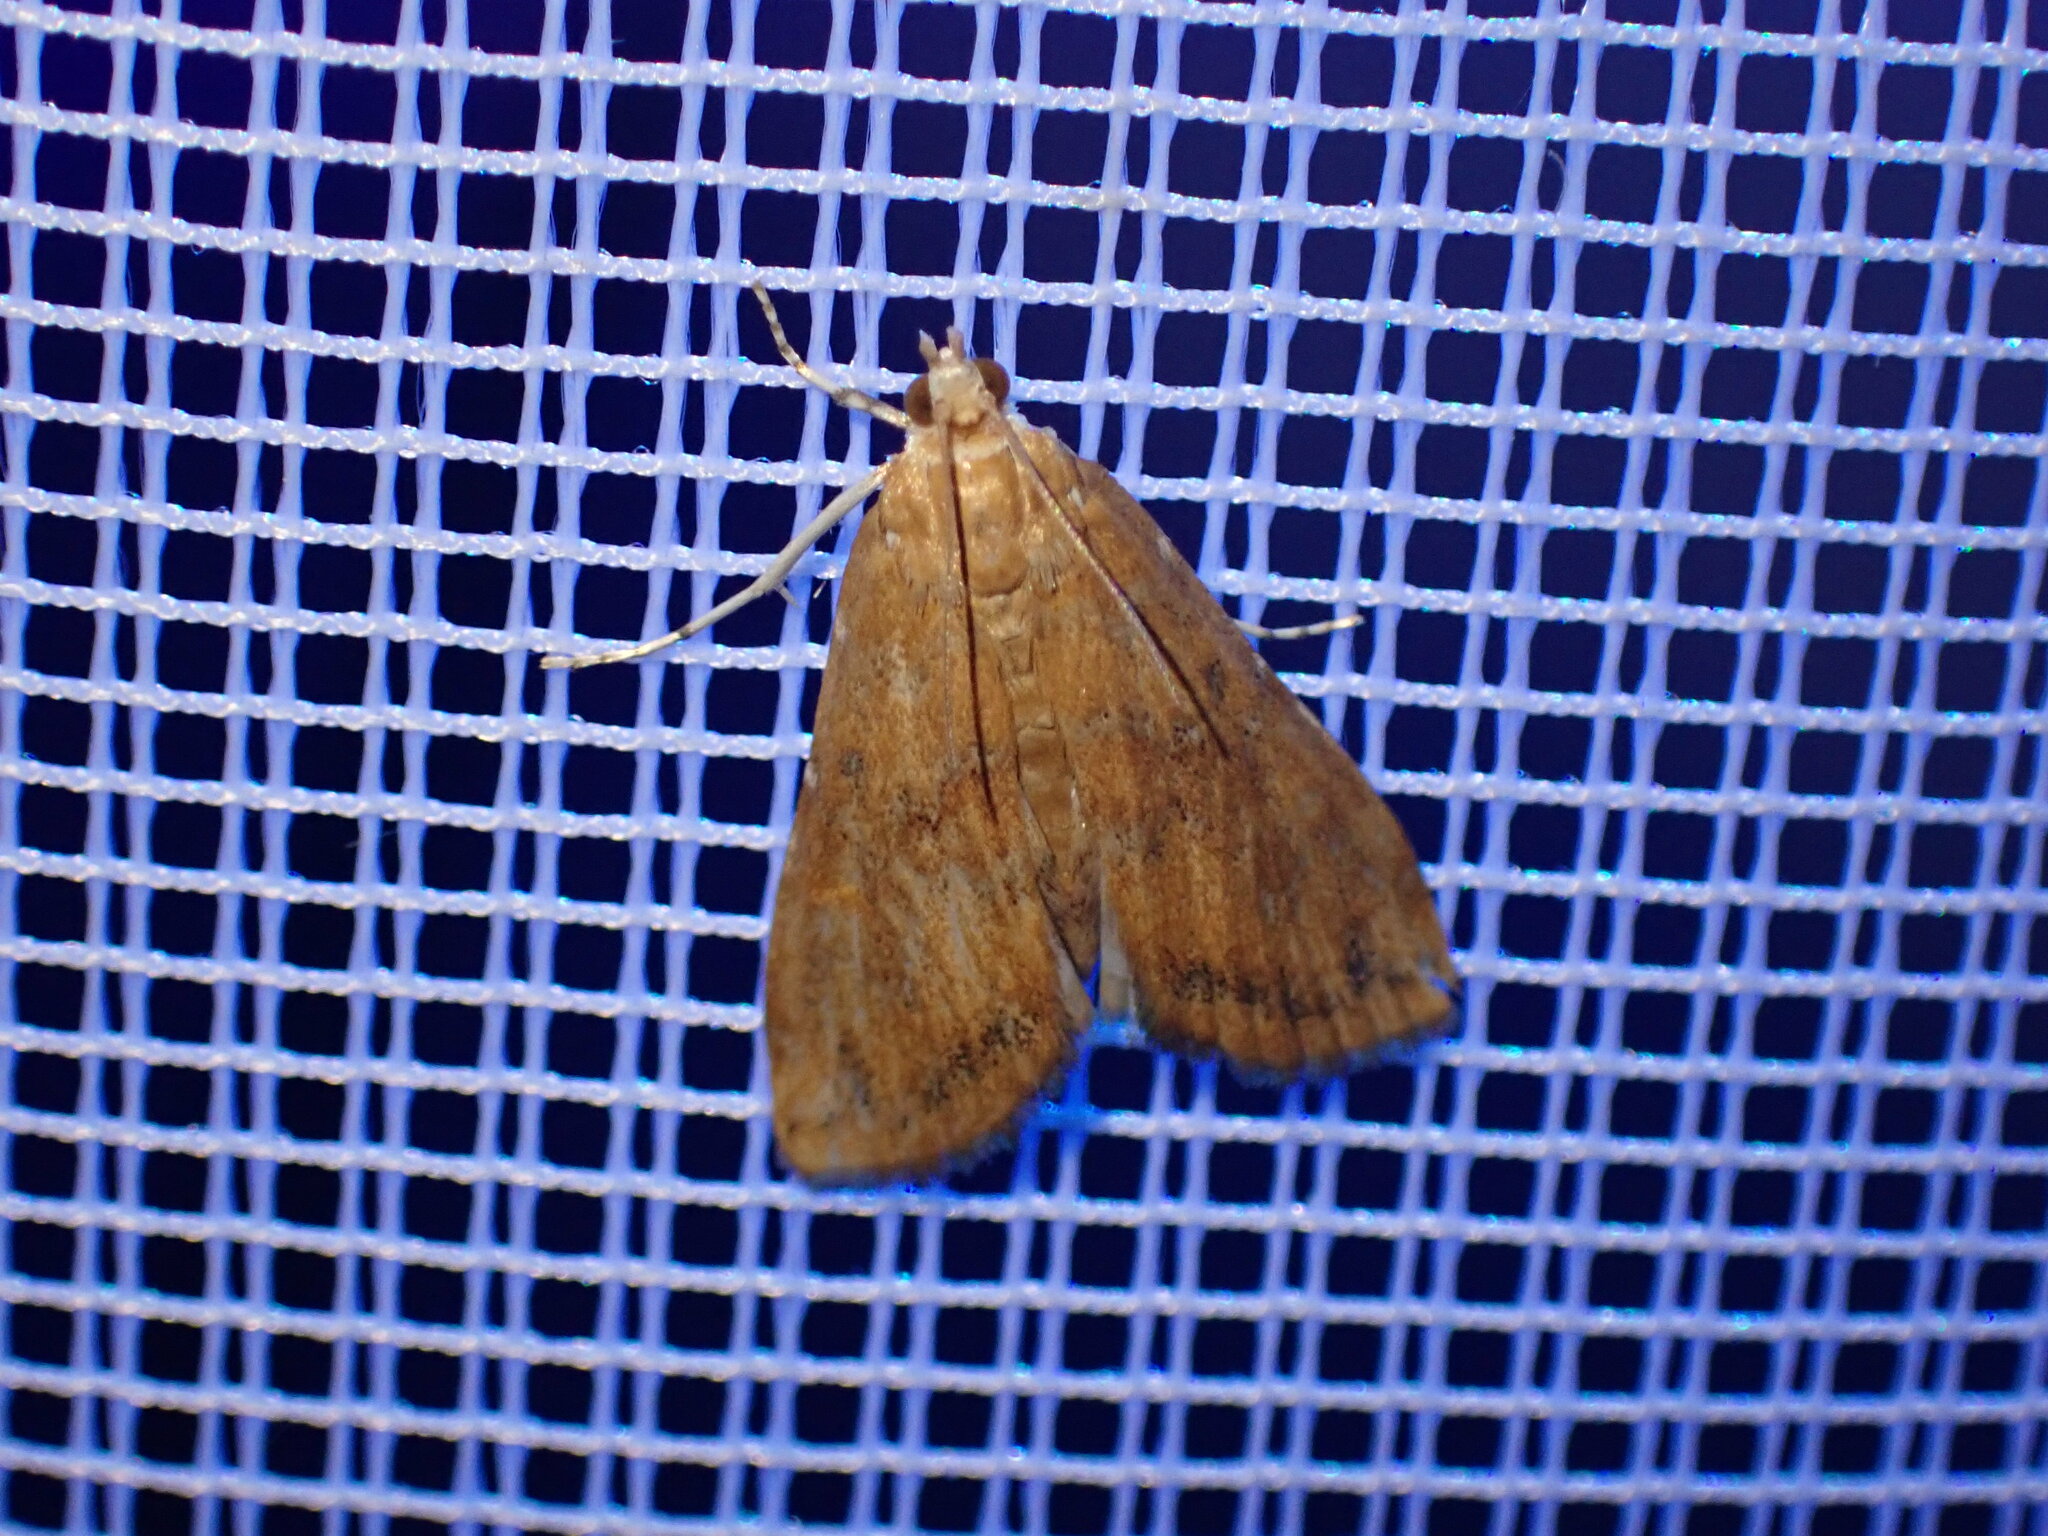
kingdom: Animalia
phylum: Arthropoda
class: Insecta
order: Lepidoptera
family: Crambidae
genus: Elophila
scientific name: Elophila gyralis
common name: Waterlily borer moth
